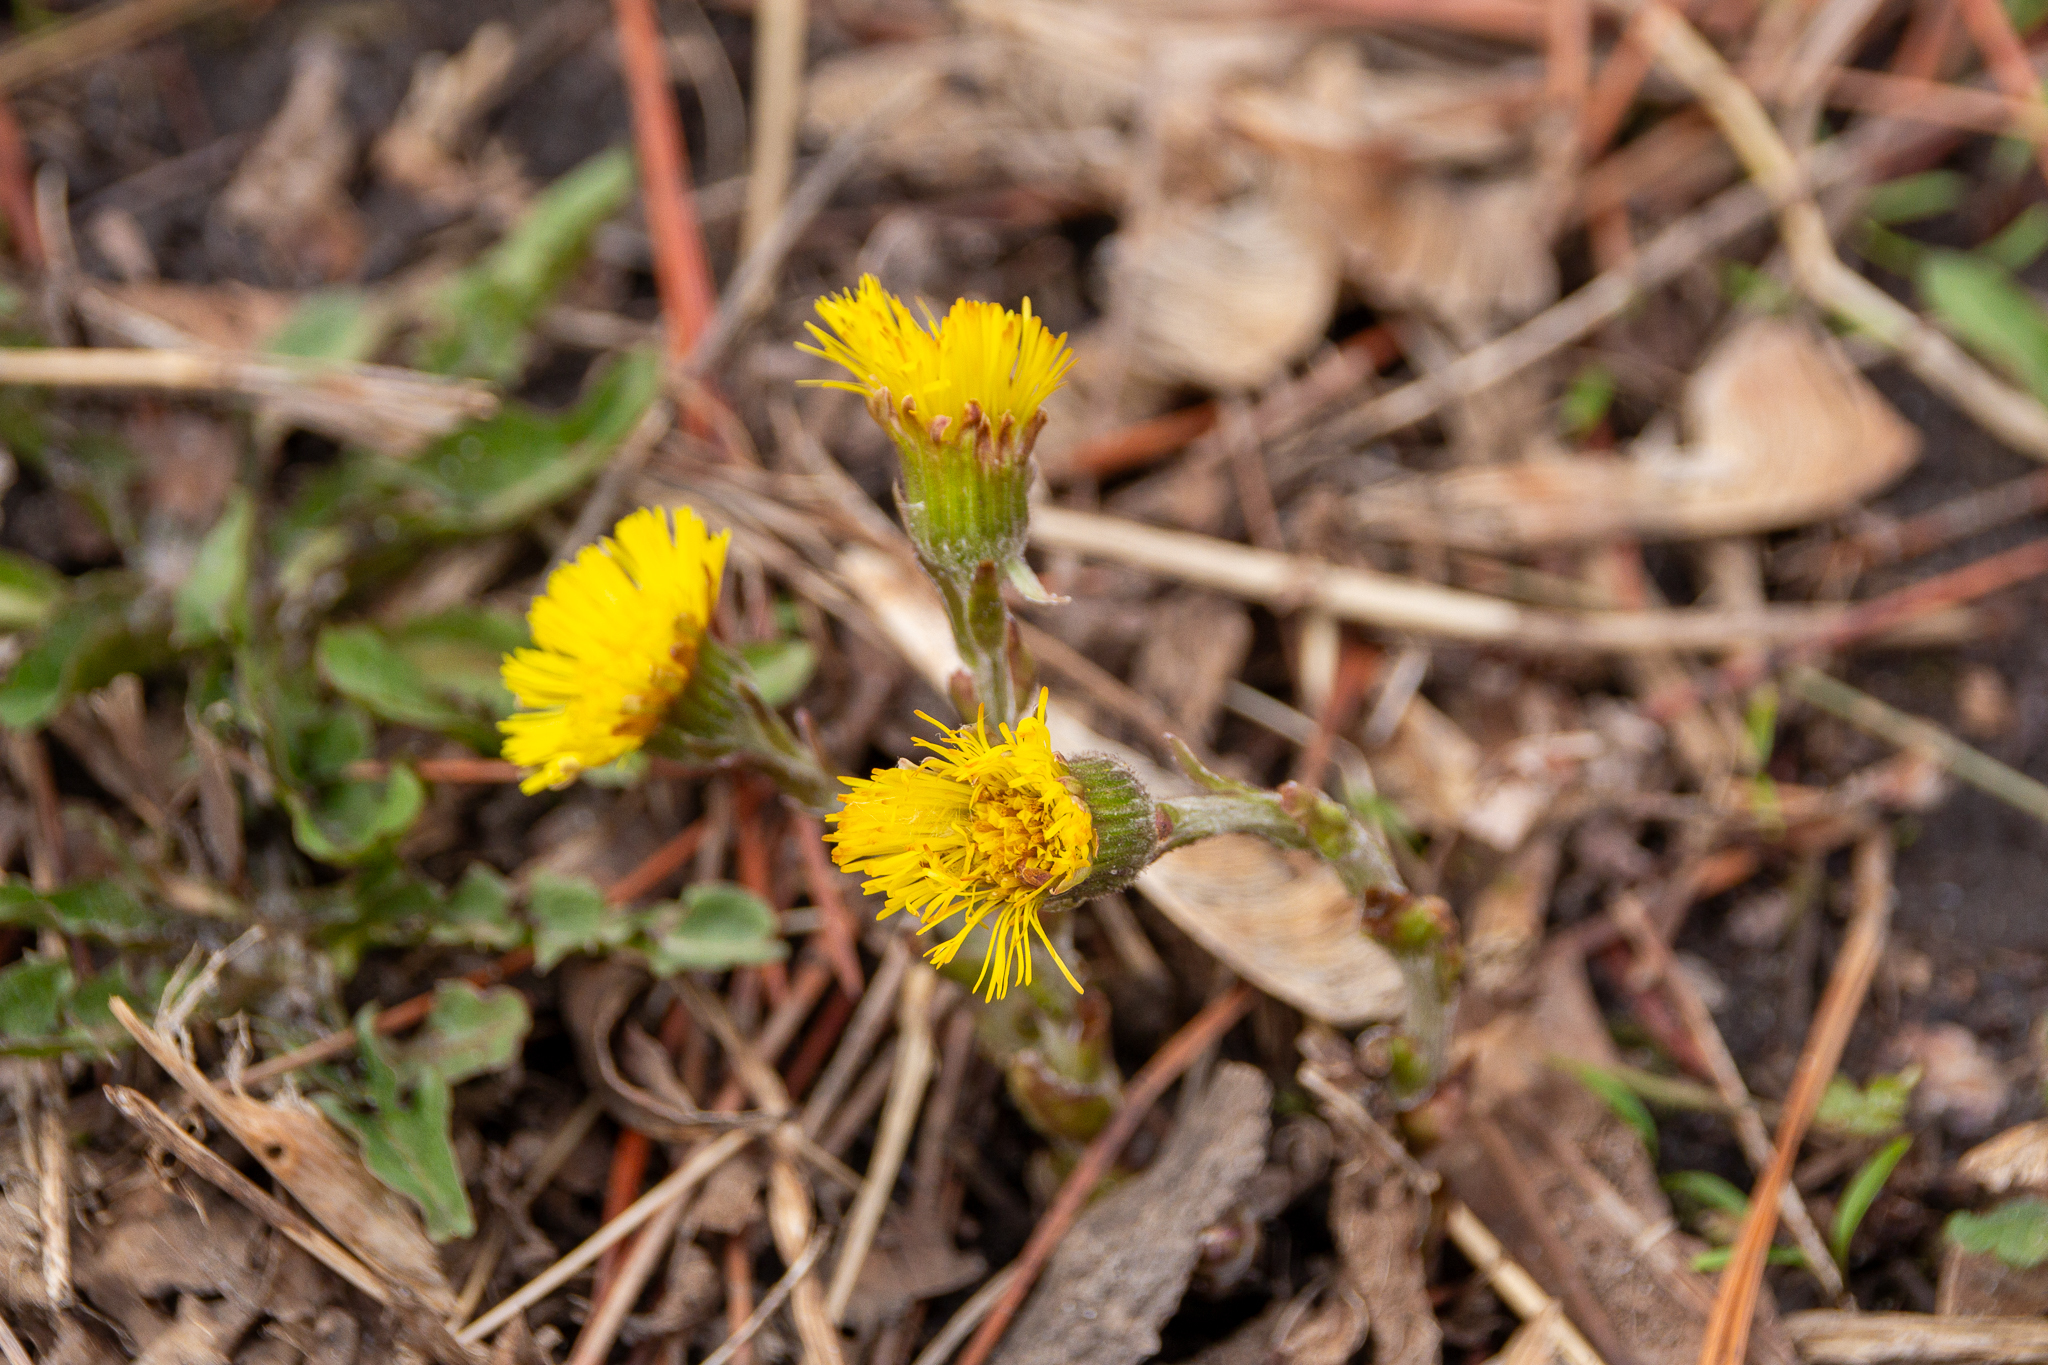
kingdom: Plantae
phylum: Tracheophyta
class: Magnoliopsida
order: Asterales
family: Asteraceae
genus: Tussilago
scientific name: Tussilago farfara
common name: Coltsfoot
